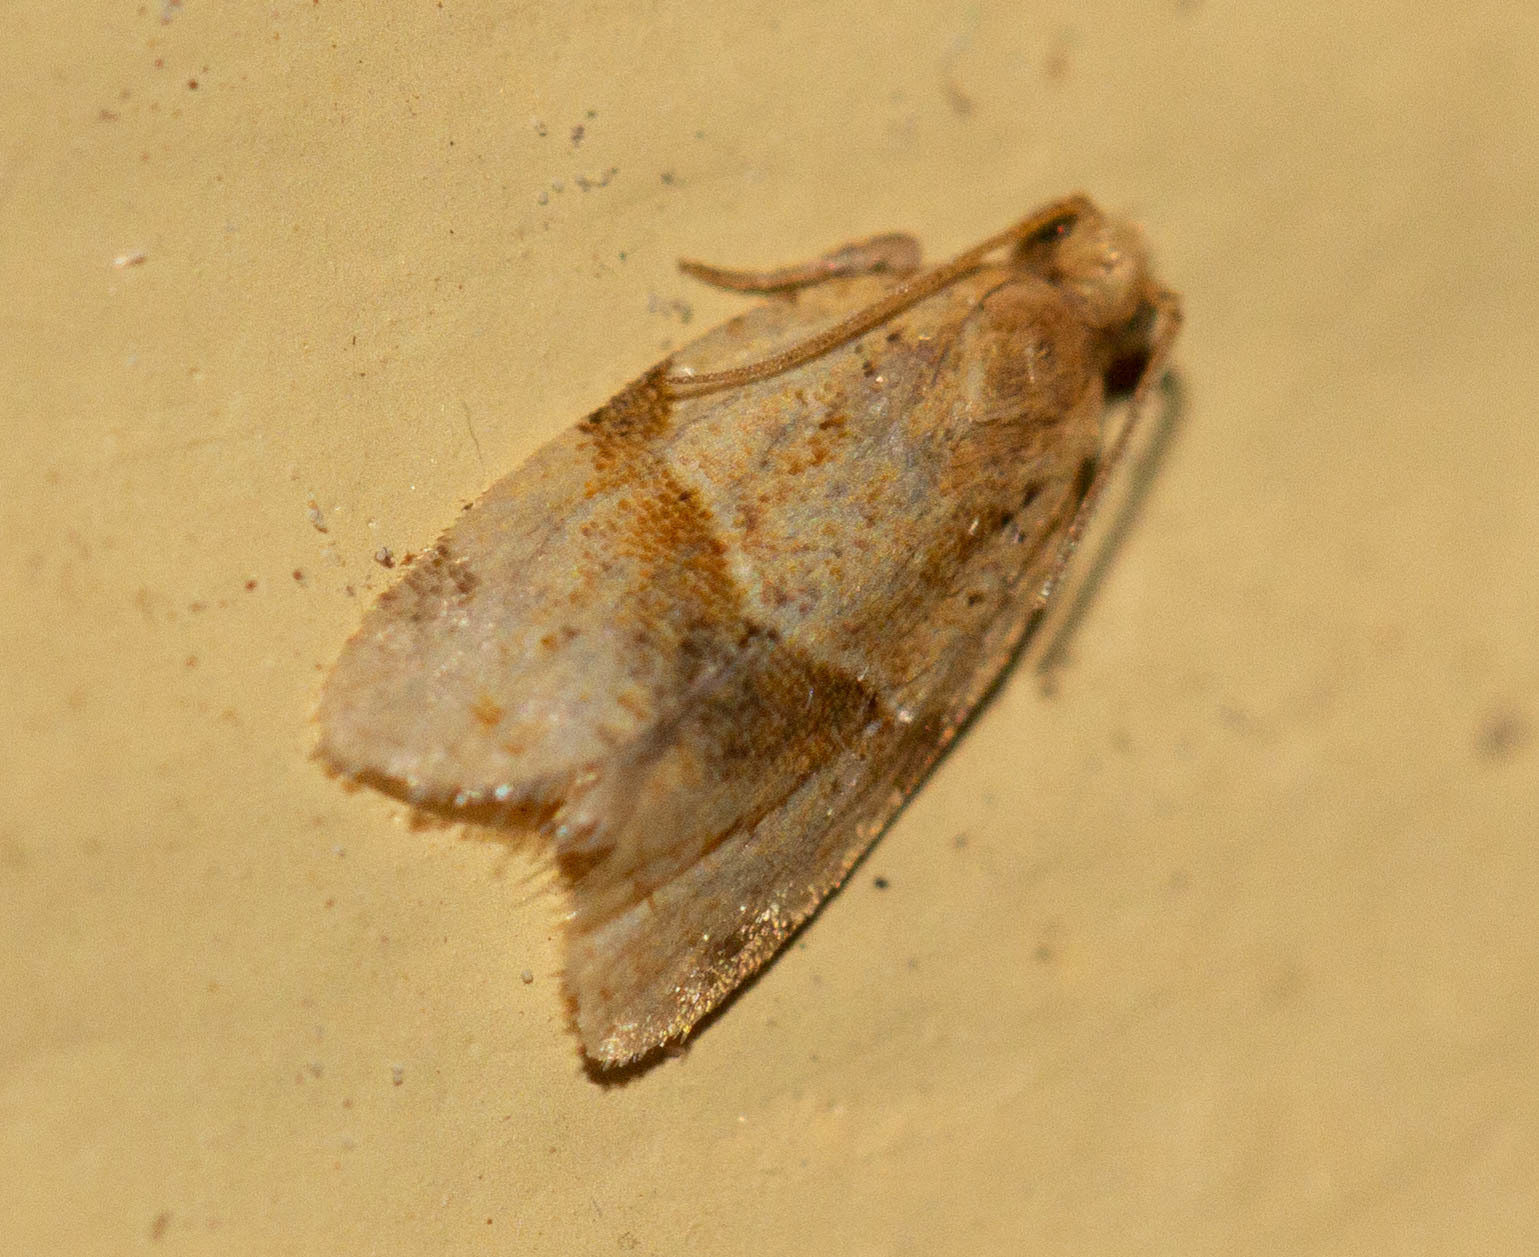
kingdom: Animalia
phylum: Arthropoda
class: Insecta
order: Lepidoptera
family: Tortricidae
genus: Clepsis
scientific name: Clepsis peritana
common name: Garden tortrix
